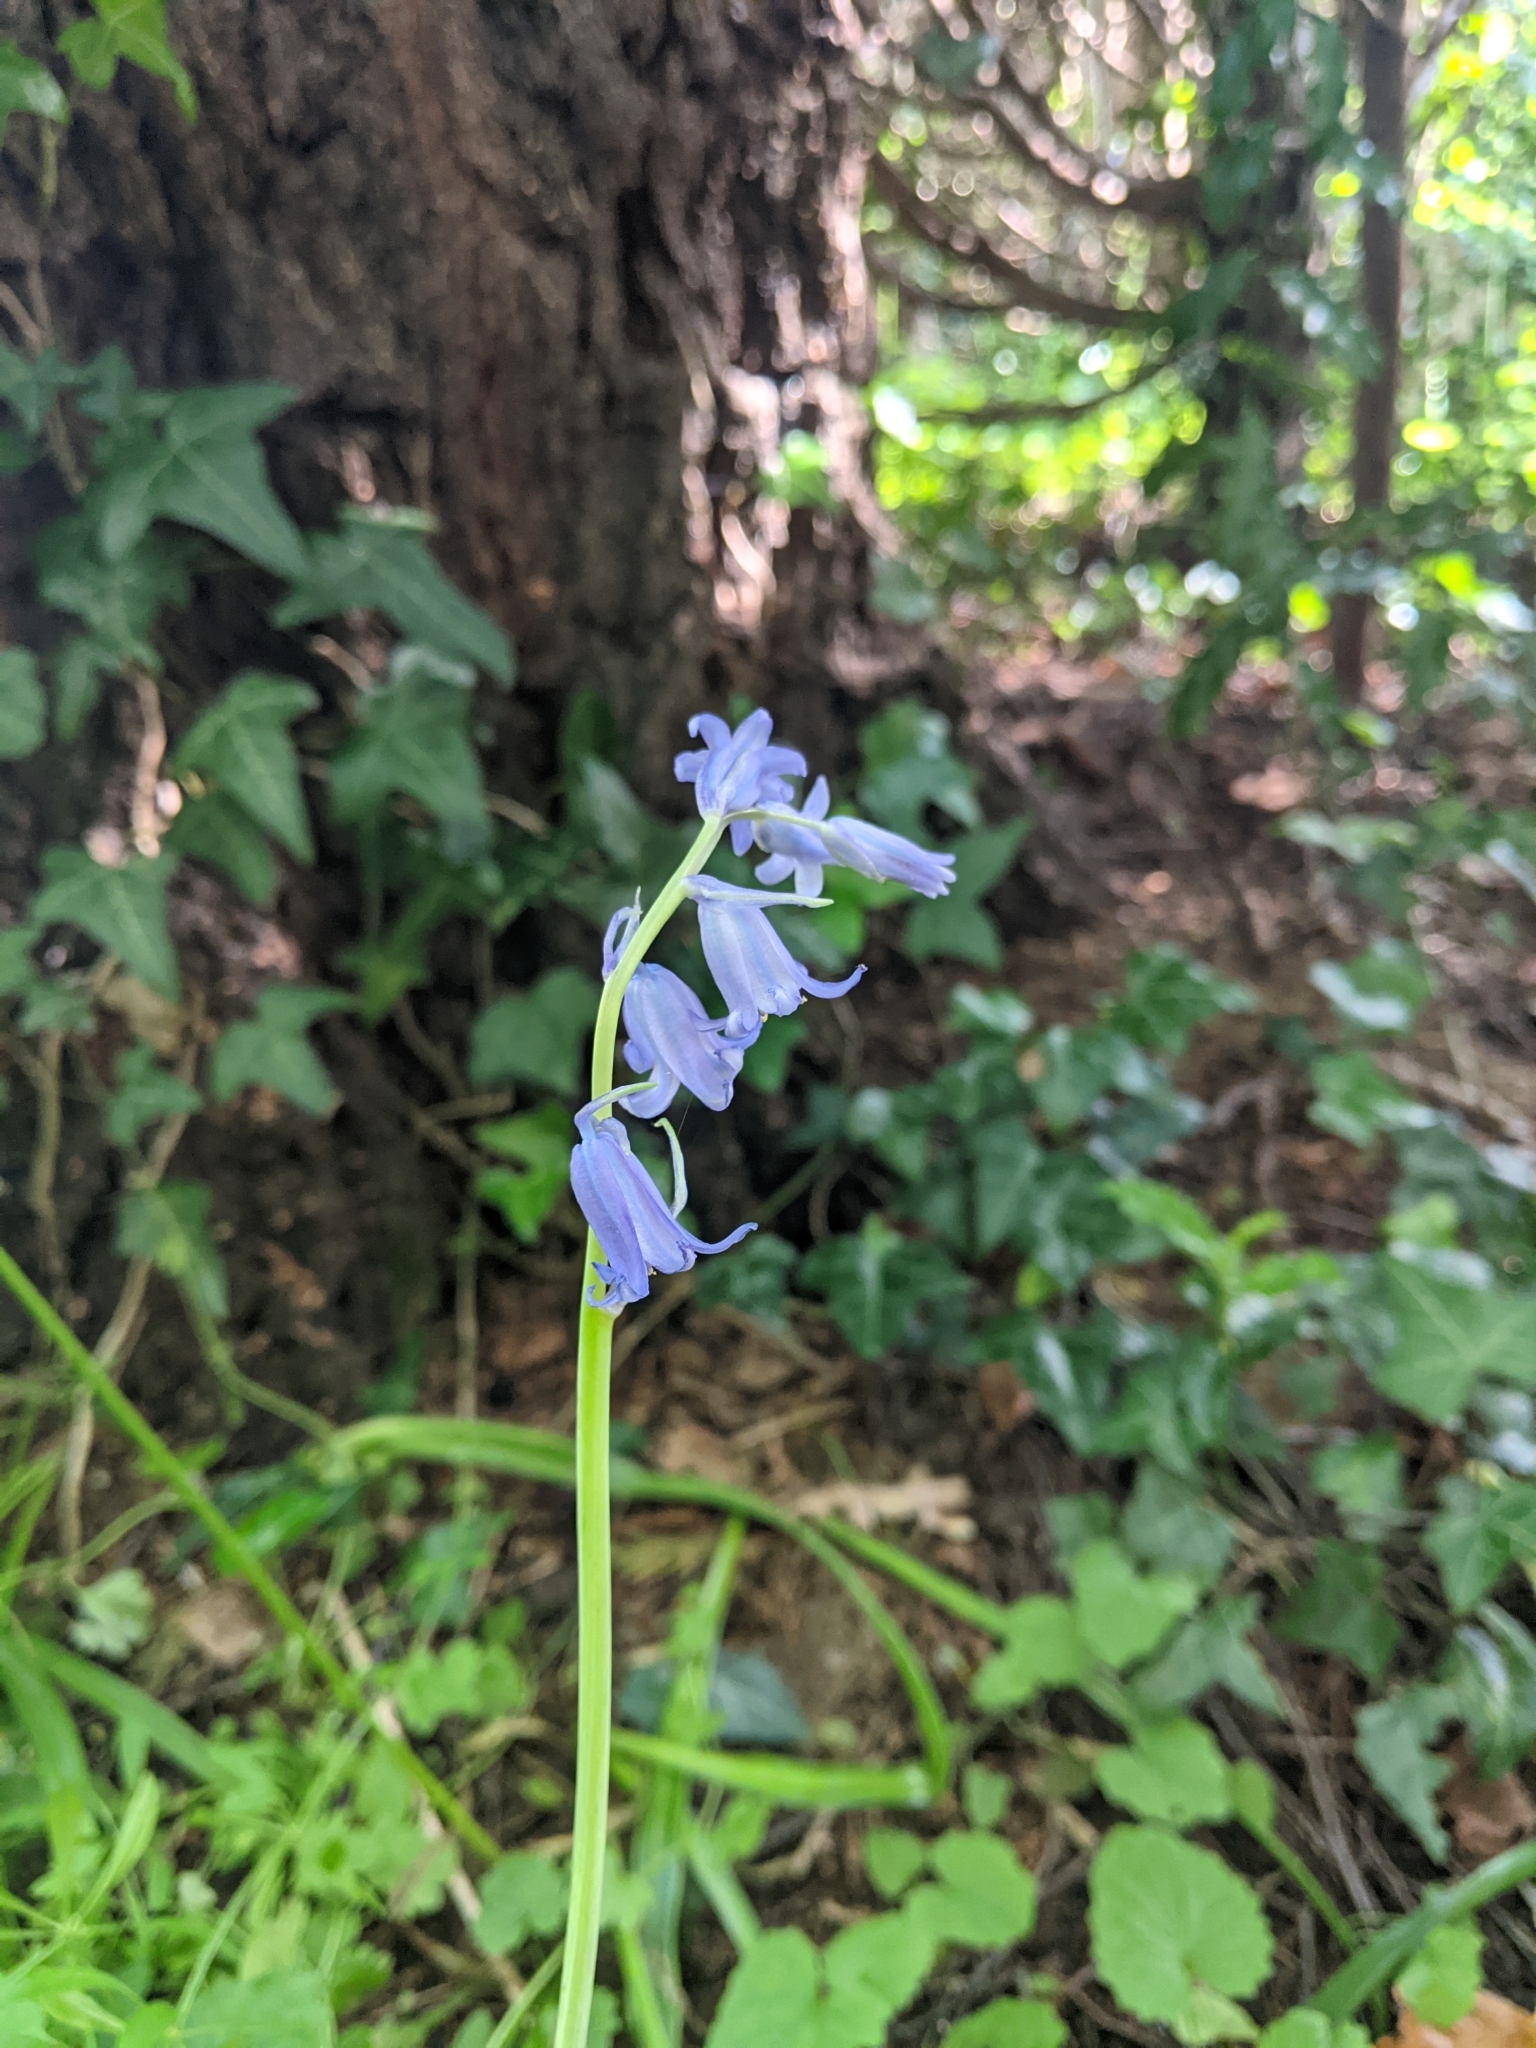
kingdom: Fungi
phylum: Basidiomycota
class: Pucciniomycetes
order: Pucciniales
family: Pucciniaceae
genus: Uromyces
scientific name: Uromyces hyacinthi
